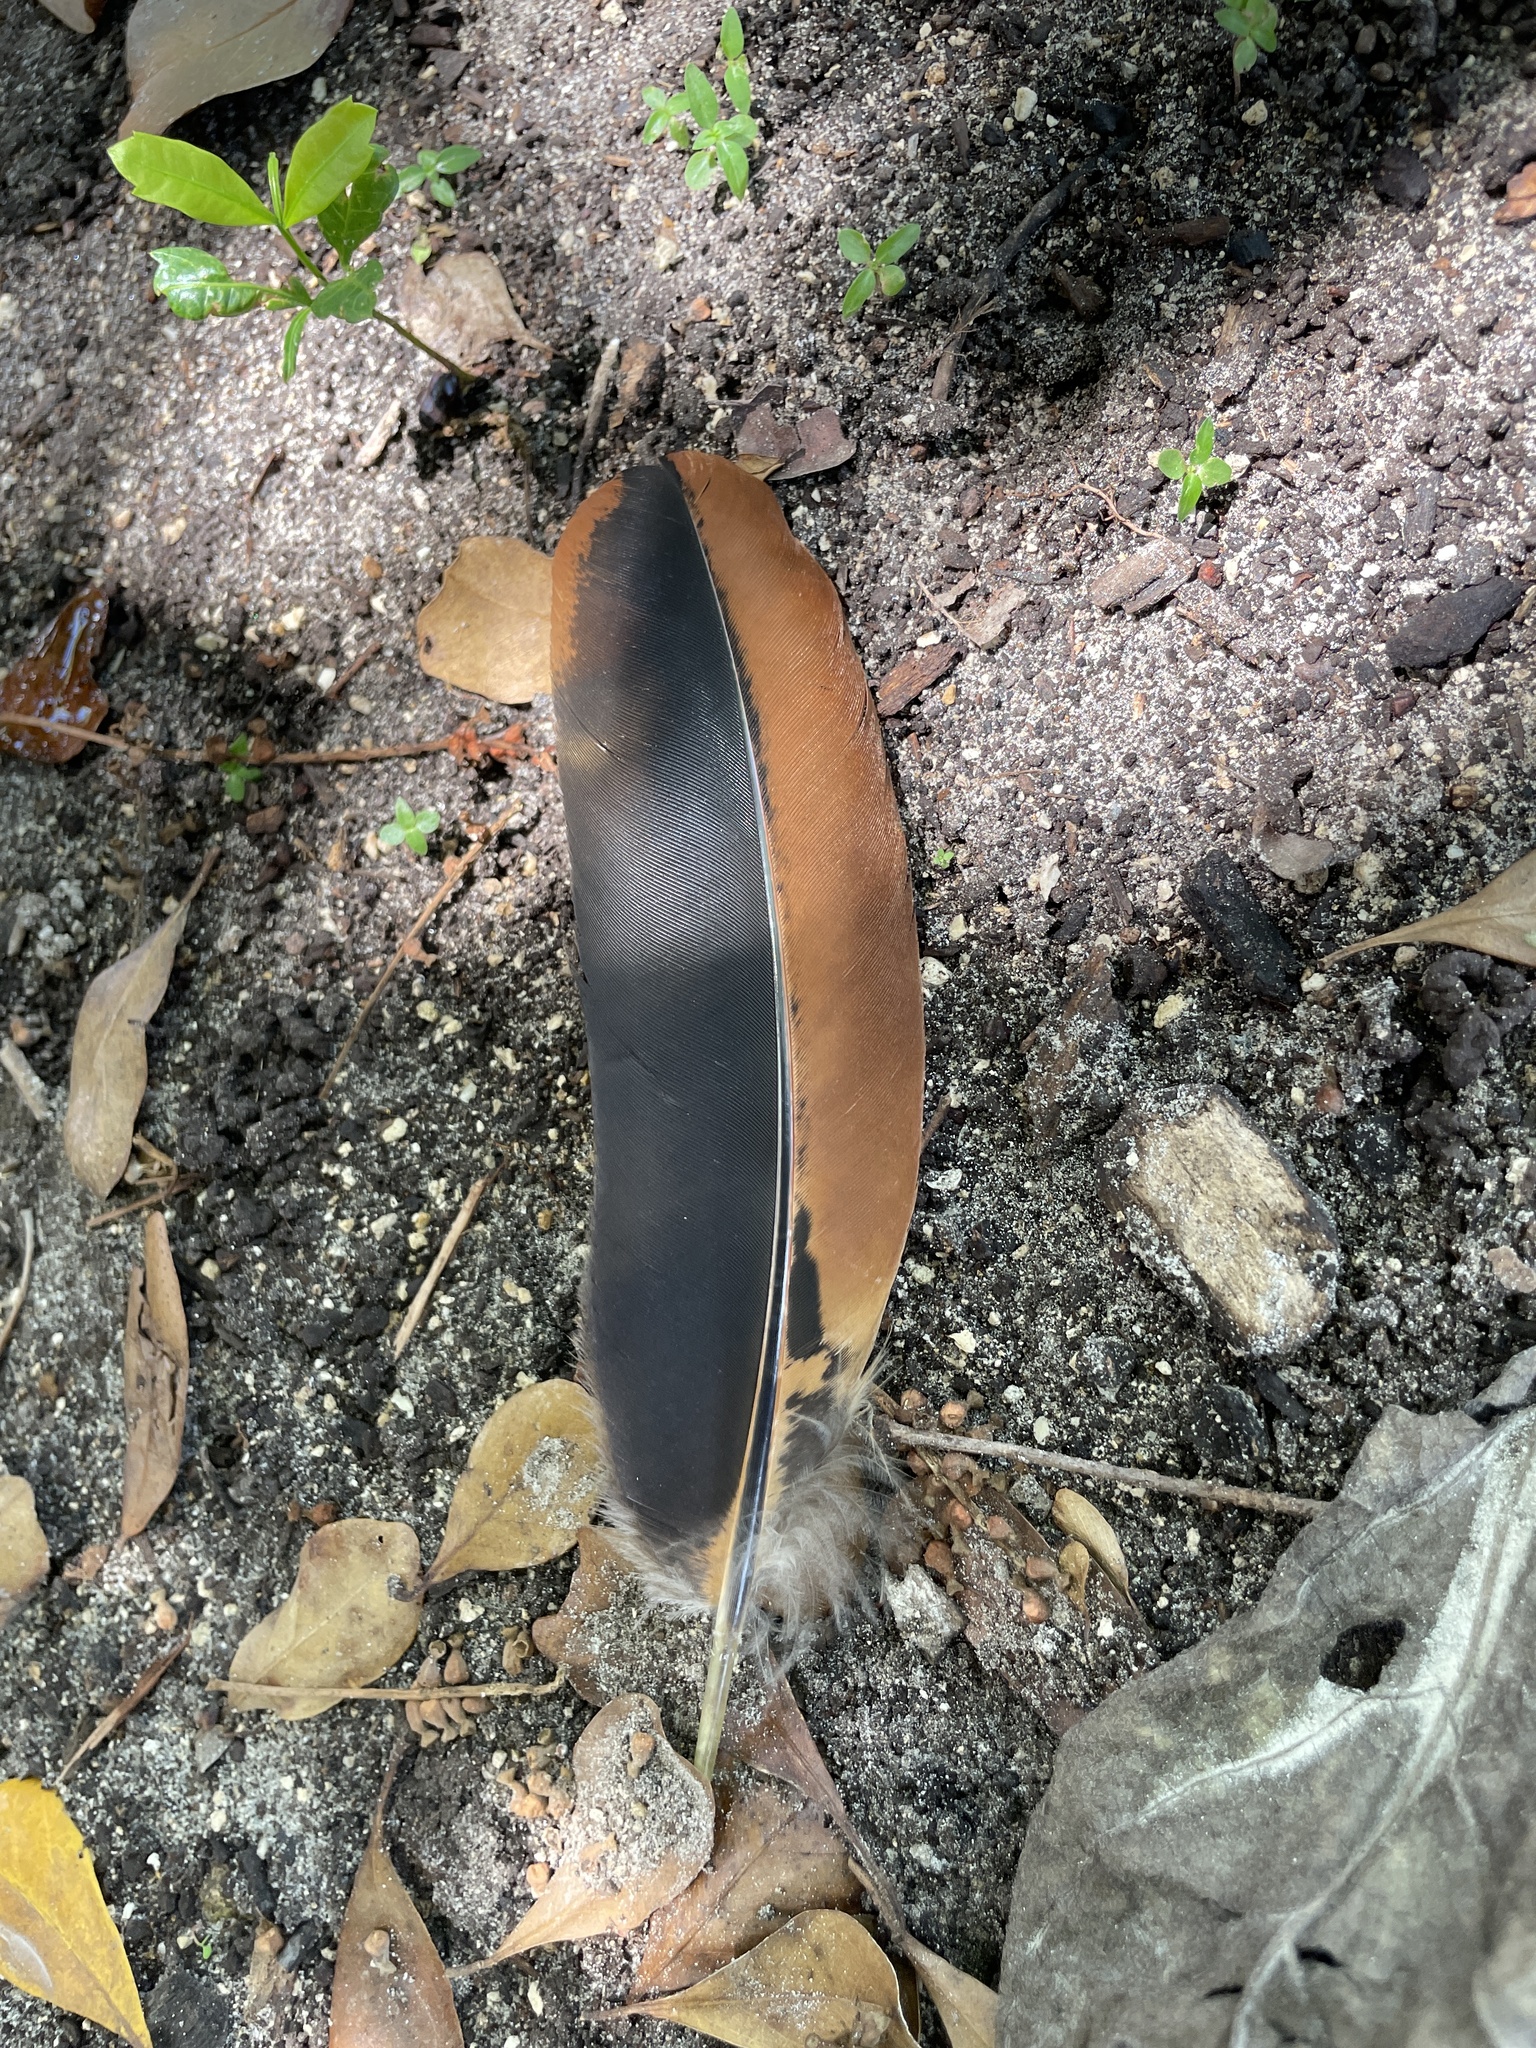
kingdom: Animalia
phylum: Chordata
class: Aves
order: Galliformes
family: Phasianidae
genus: Gallus
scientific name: Gallus gallus
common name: Red junglefowl
